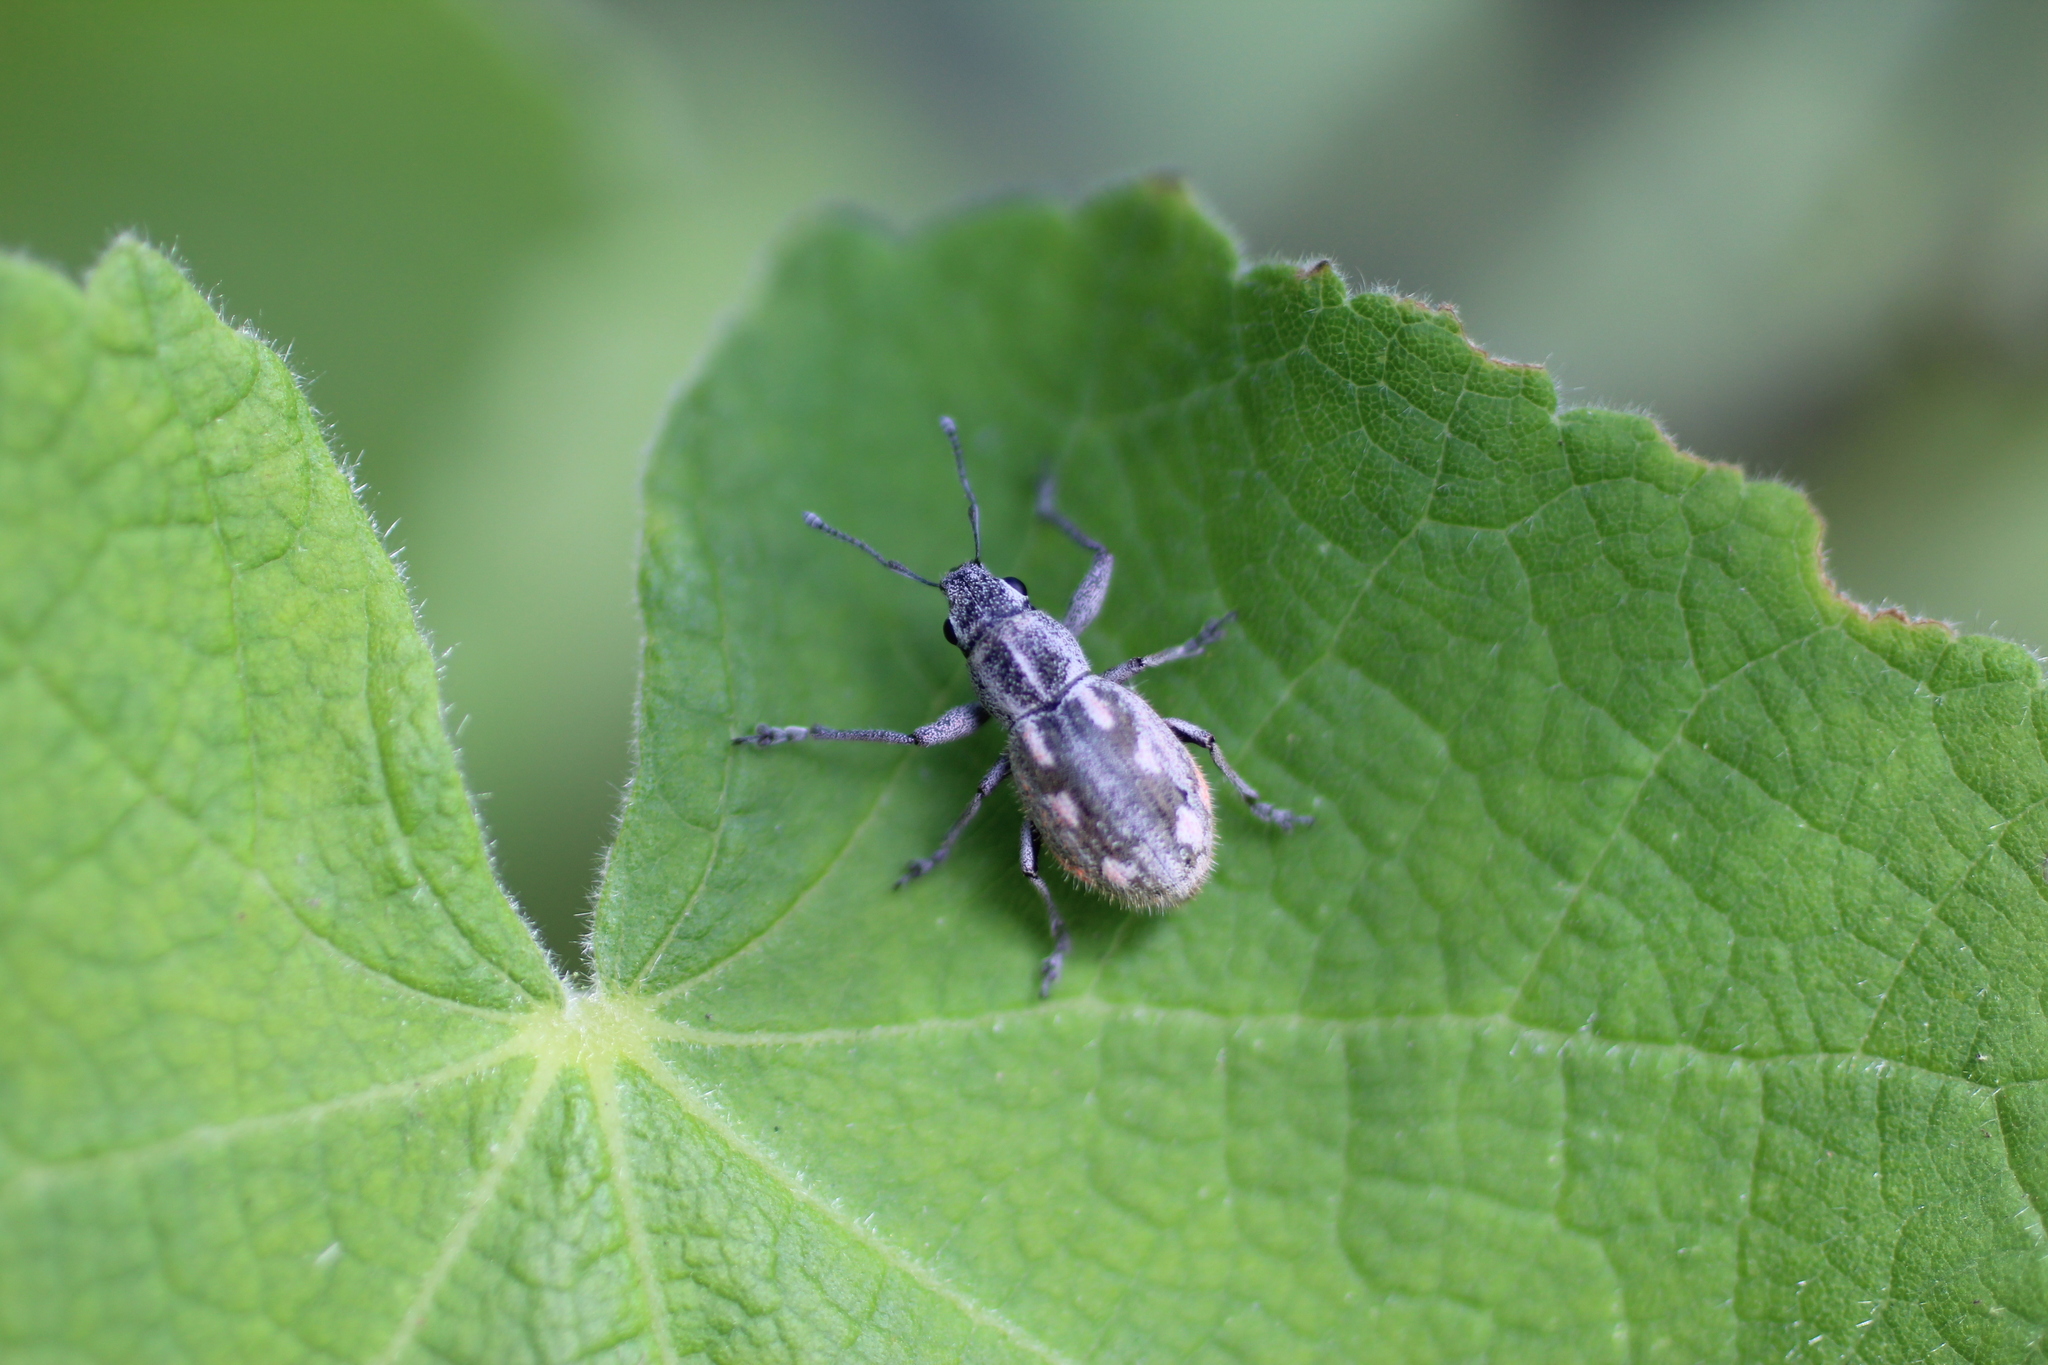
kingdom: Animalia
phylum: Arthropoda
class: Insecta
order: Coleoptera
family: Curculionidae
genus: Pantomorus
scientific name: Pantomorus albosignatus
